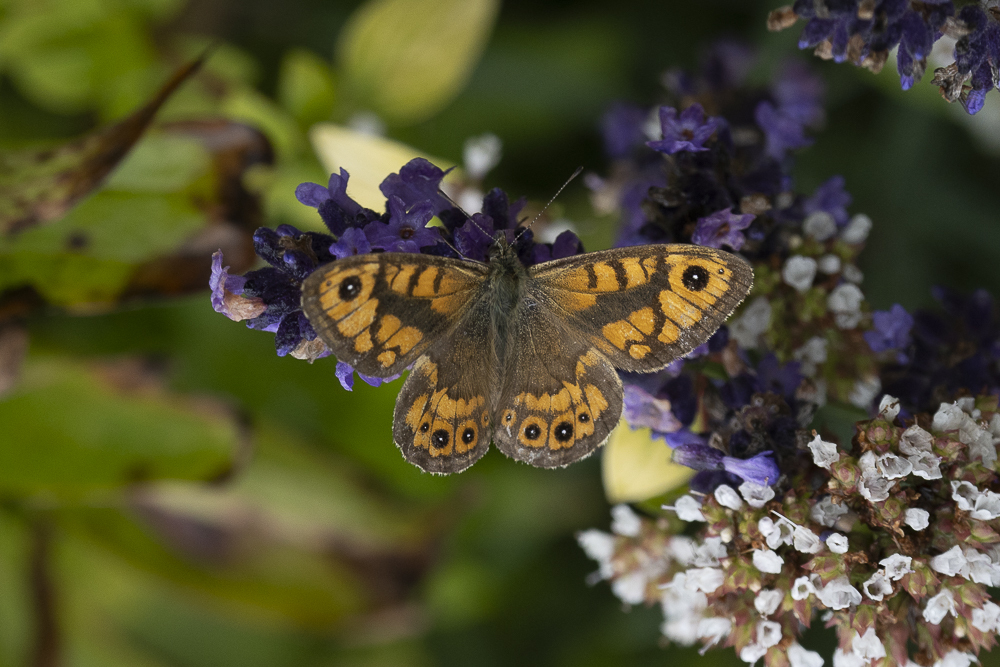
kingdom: Animalia
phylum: Arthropoda
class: Insecta
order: Lepidoptera
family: Nymphalidae
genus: Pararge
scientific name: Pararge Lasiommata megera
